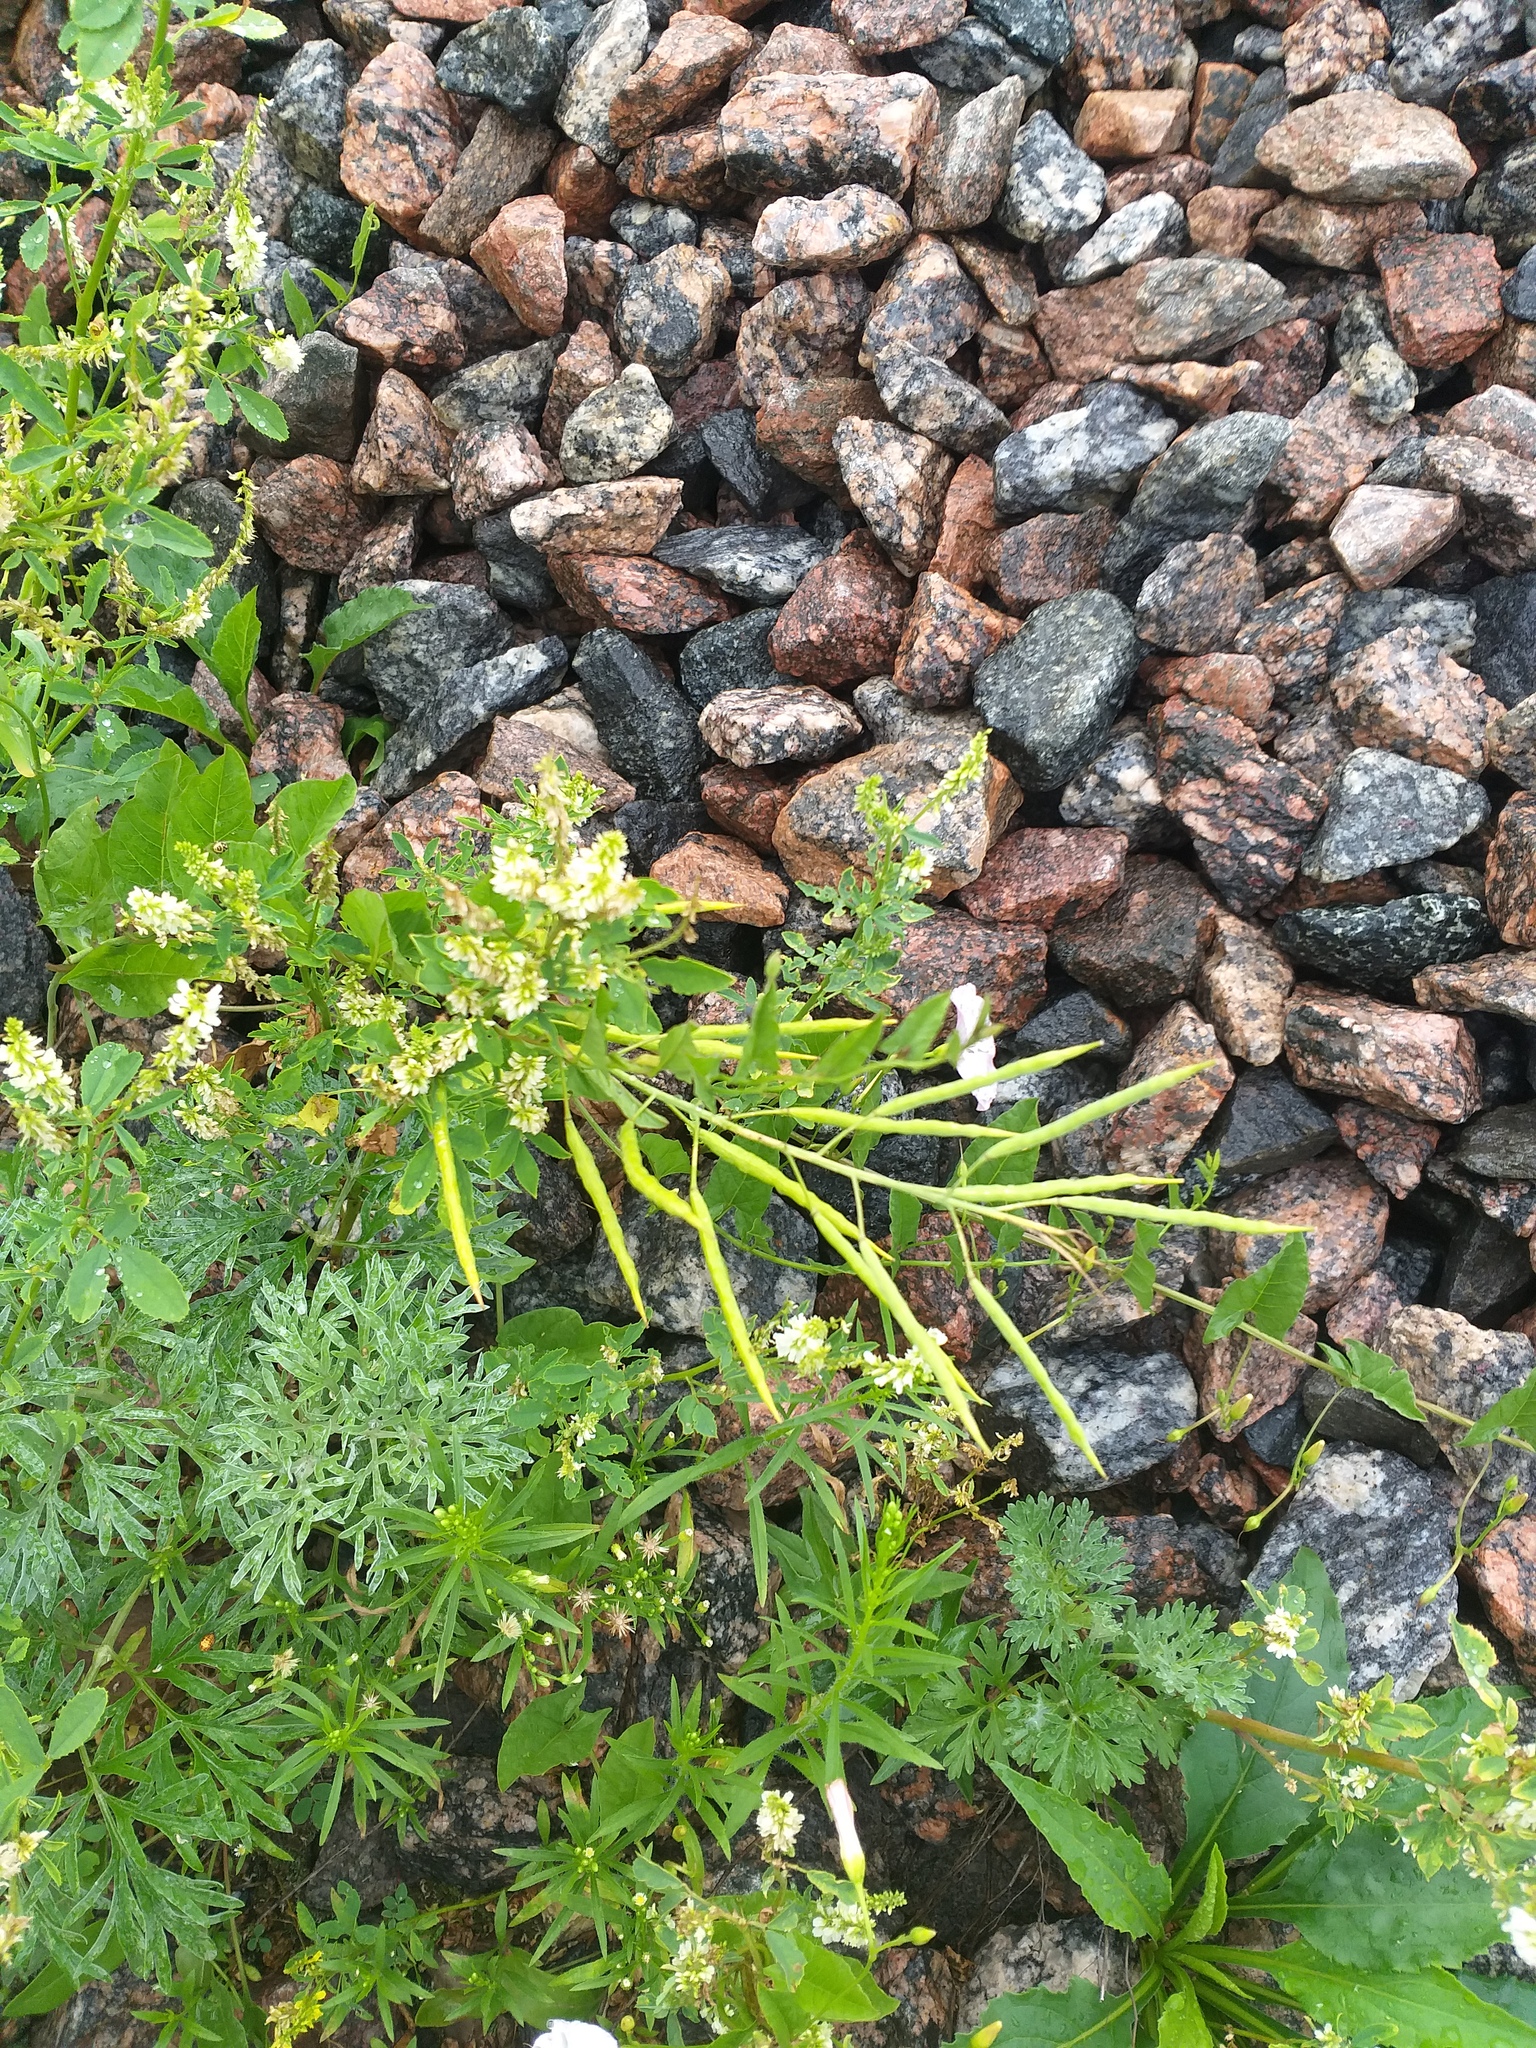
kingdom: Plantae
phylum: Tracheophyta
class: Magnoliopsida
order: Fabales
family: Fabaceae
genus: Melilotus
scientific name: Melilotus albus
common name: White melilot
